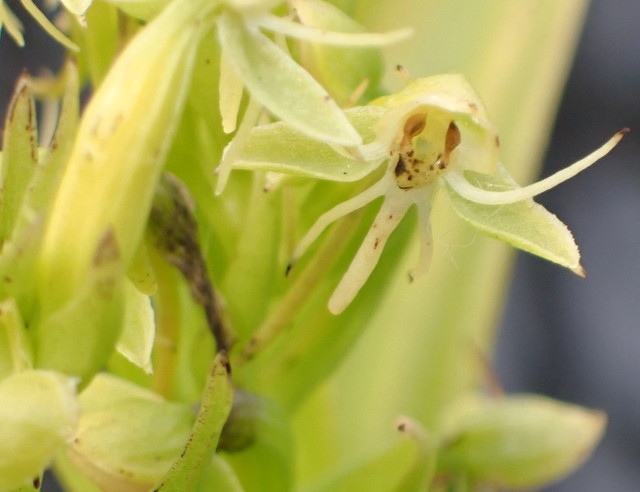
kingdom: Plantae
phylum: Tracheophyta
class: Liliopsida
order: Asparagales
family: Orchidaceae
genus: Habenaria
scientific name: Habenaria repens
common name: Water orchid
